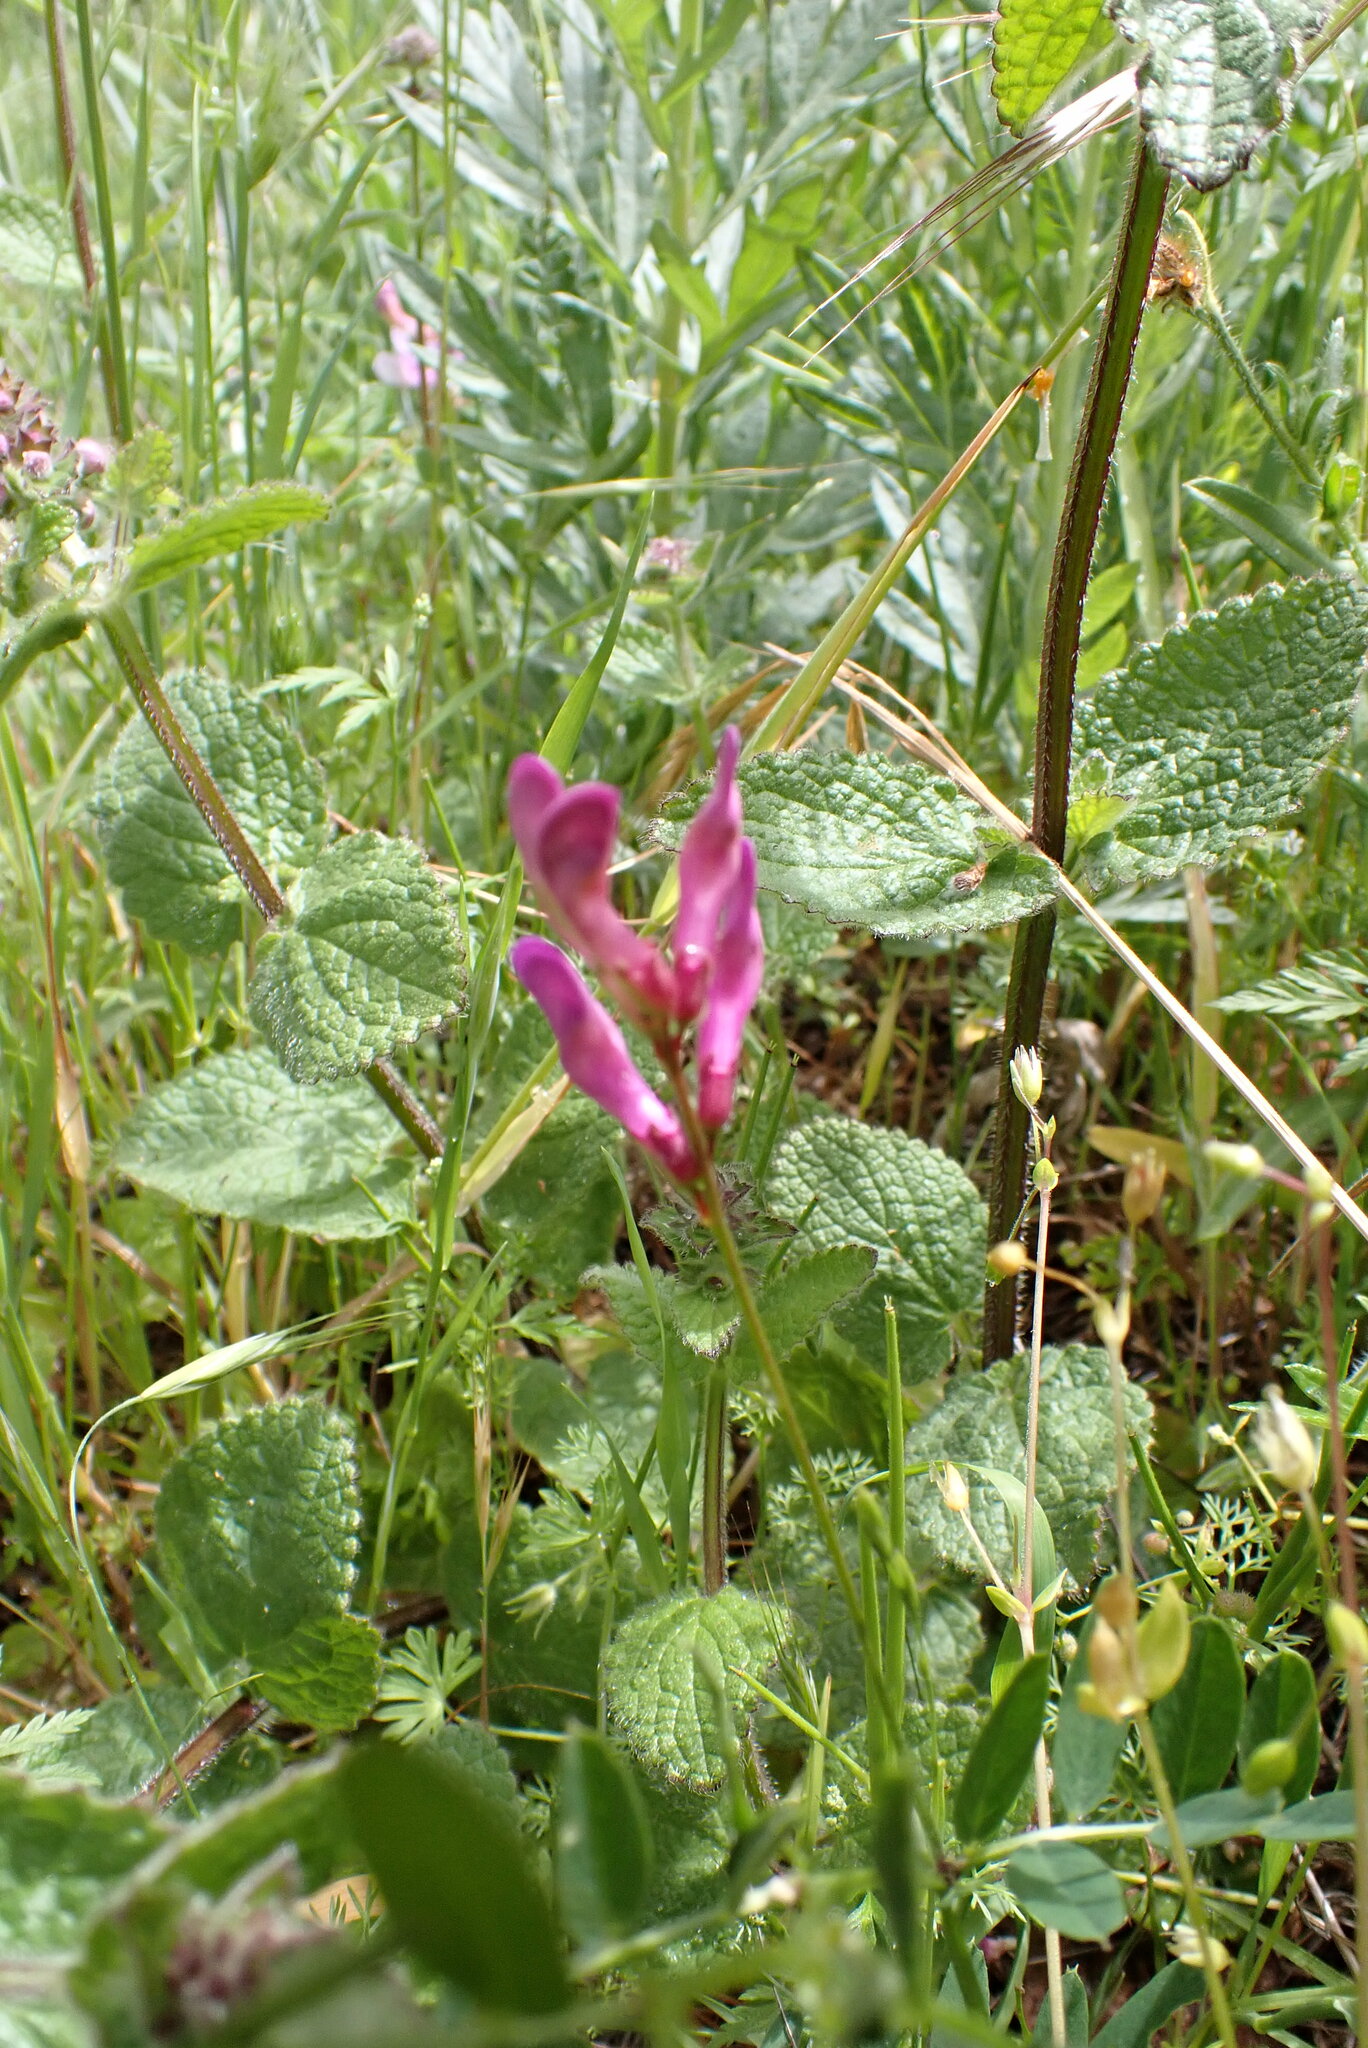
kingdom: Plantae
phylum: Tracheophyta
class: Magnoliopsida
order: Fabales
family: Fabaceae
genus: Vicia
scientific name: Vicia americana
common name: American vetch
